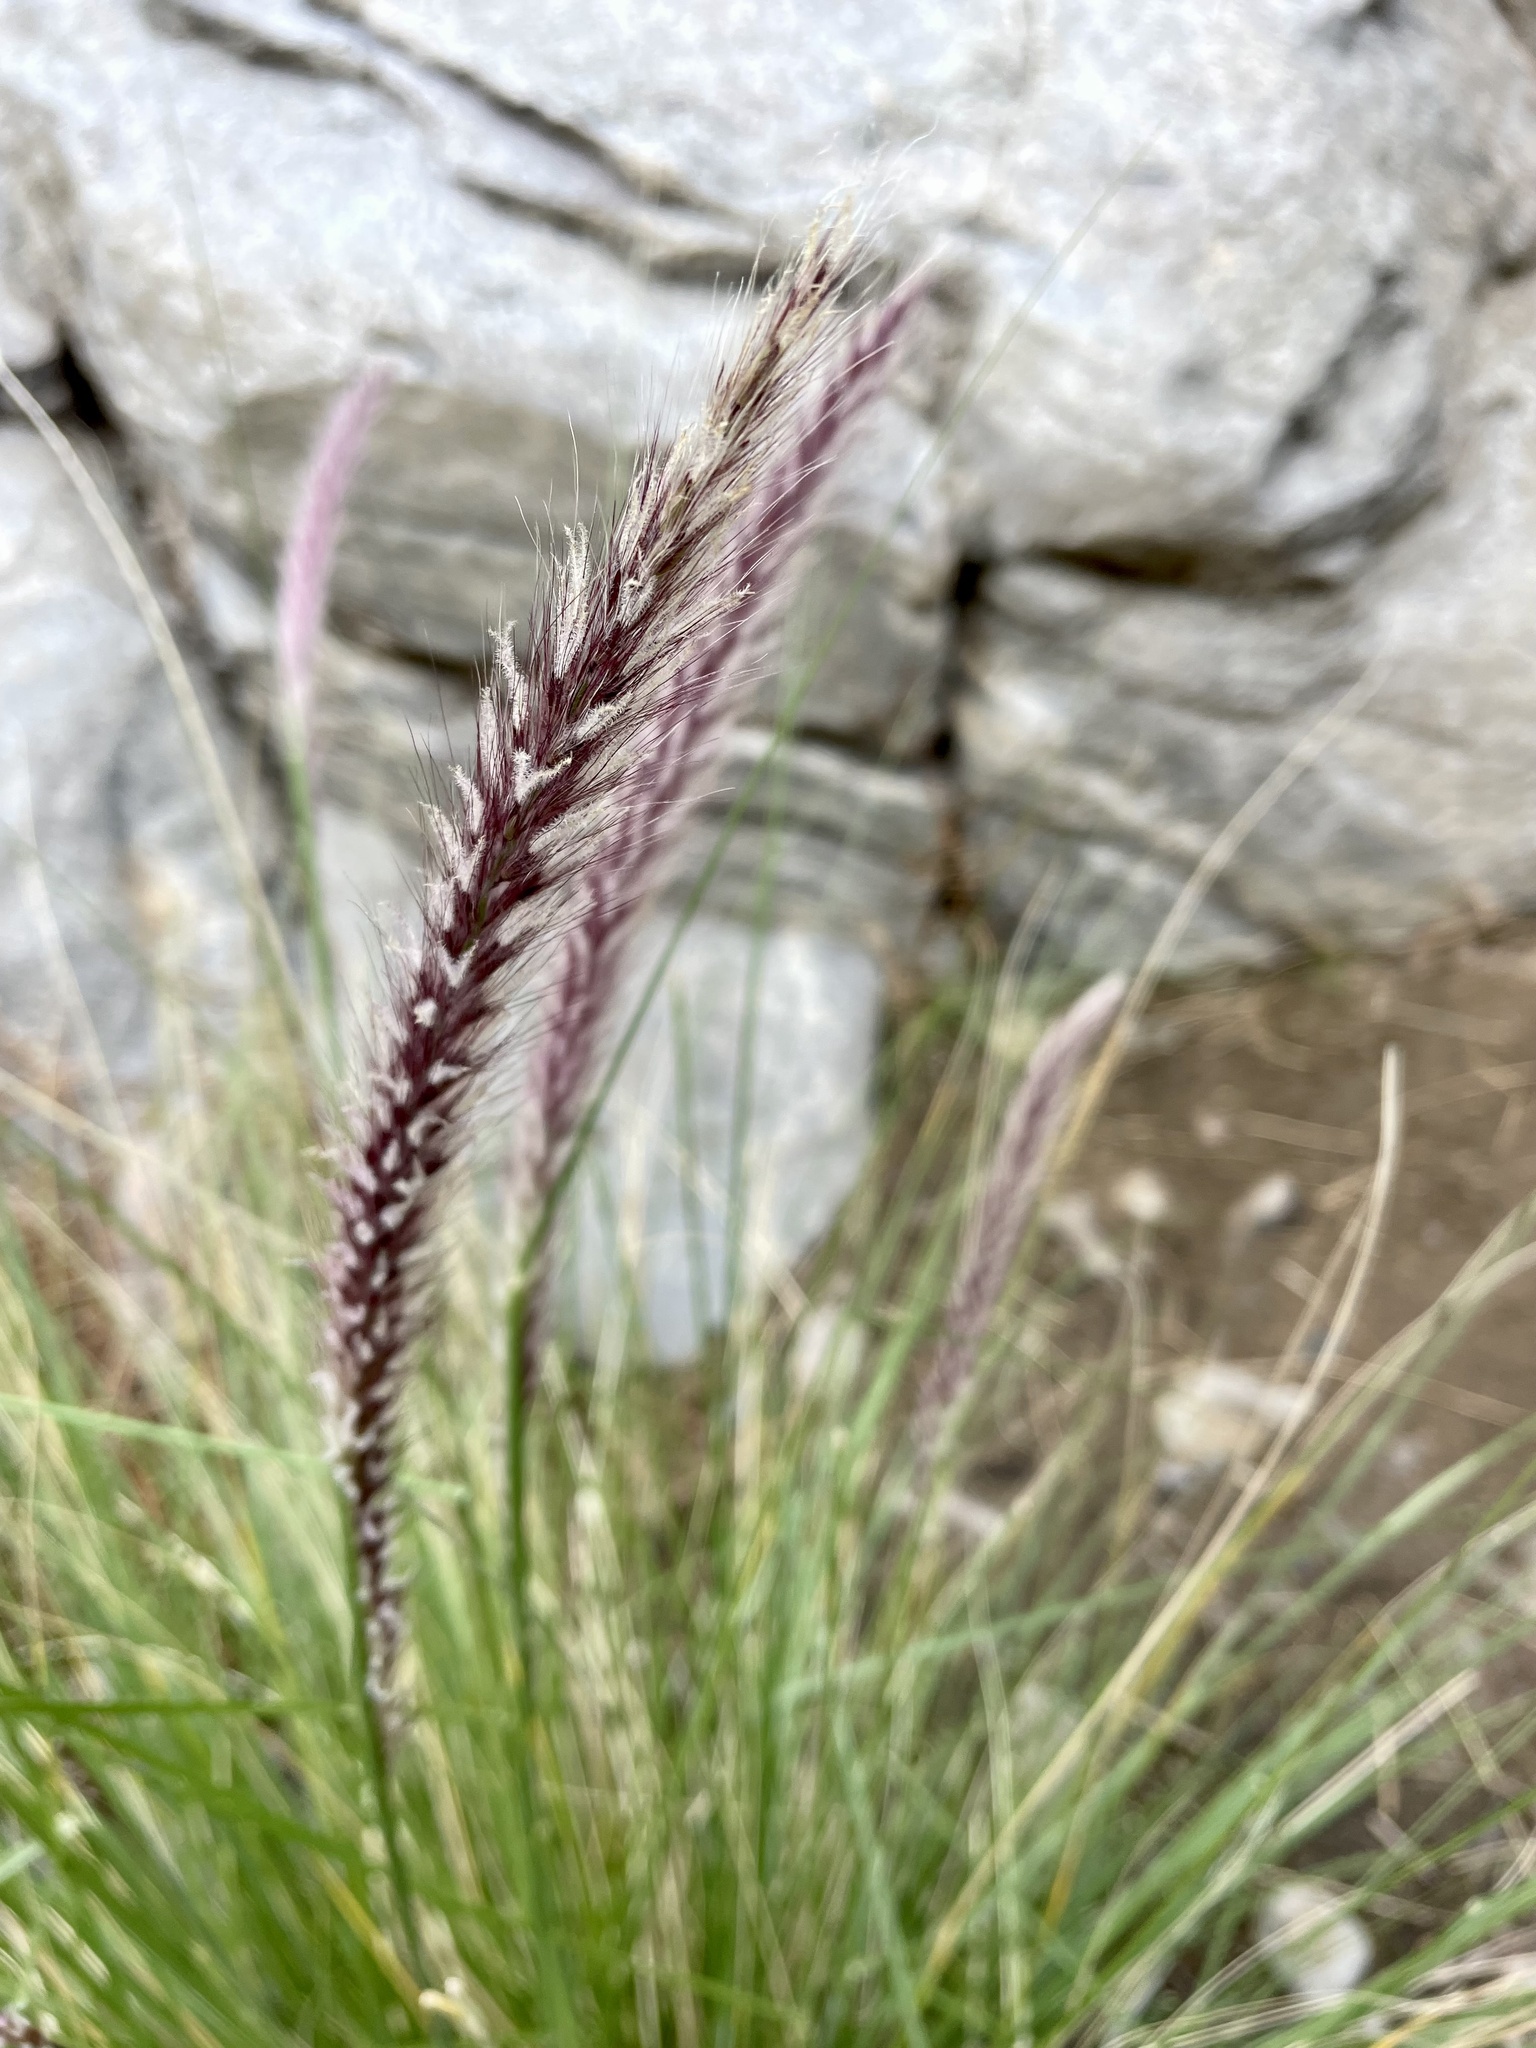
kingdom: Plantae
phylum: Tracheophyta
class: Liliopsida
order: Poales
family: Poaceae
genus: Cenchrus
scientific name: Cenchrus setaceus
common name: Crimson fountaingrass
